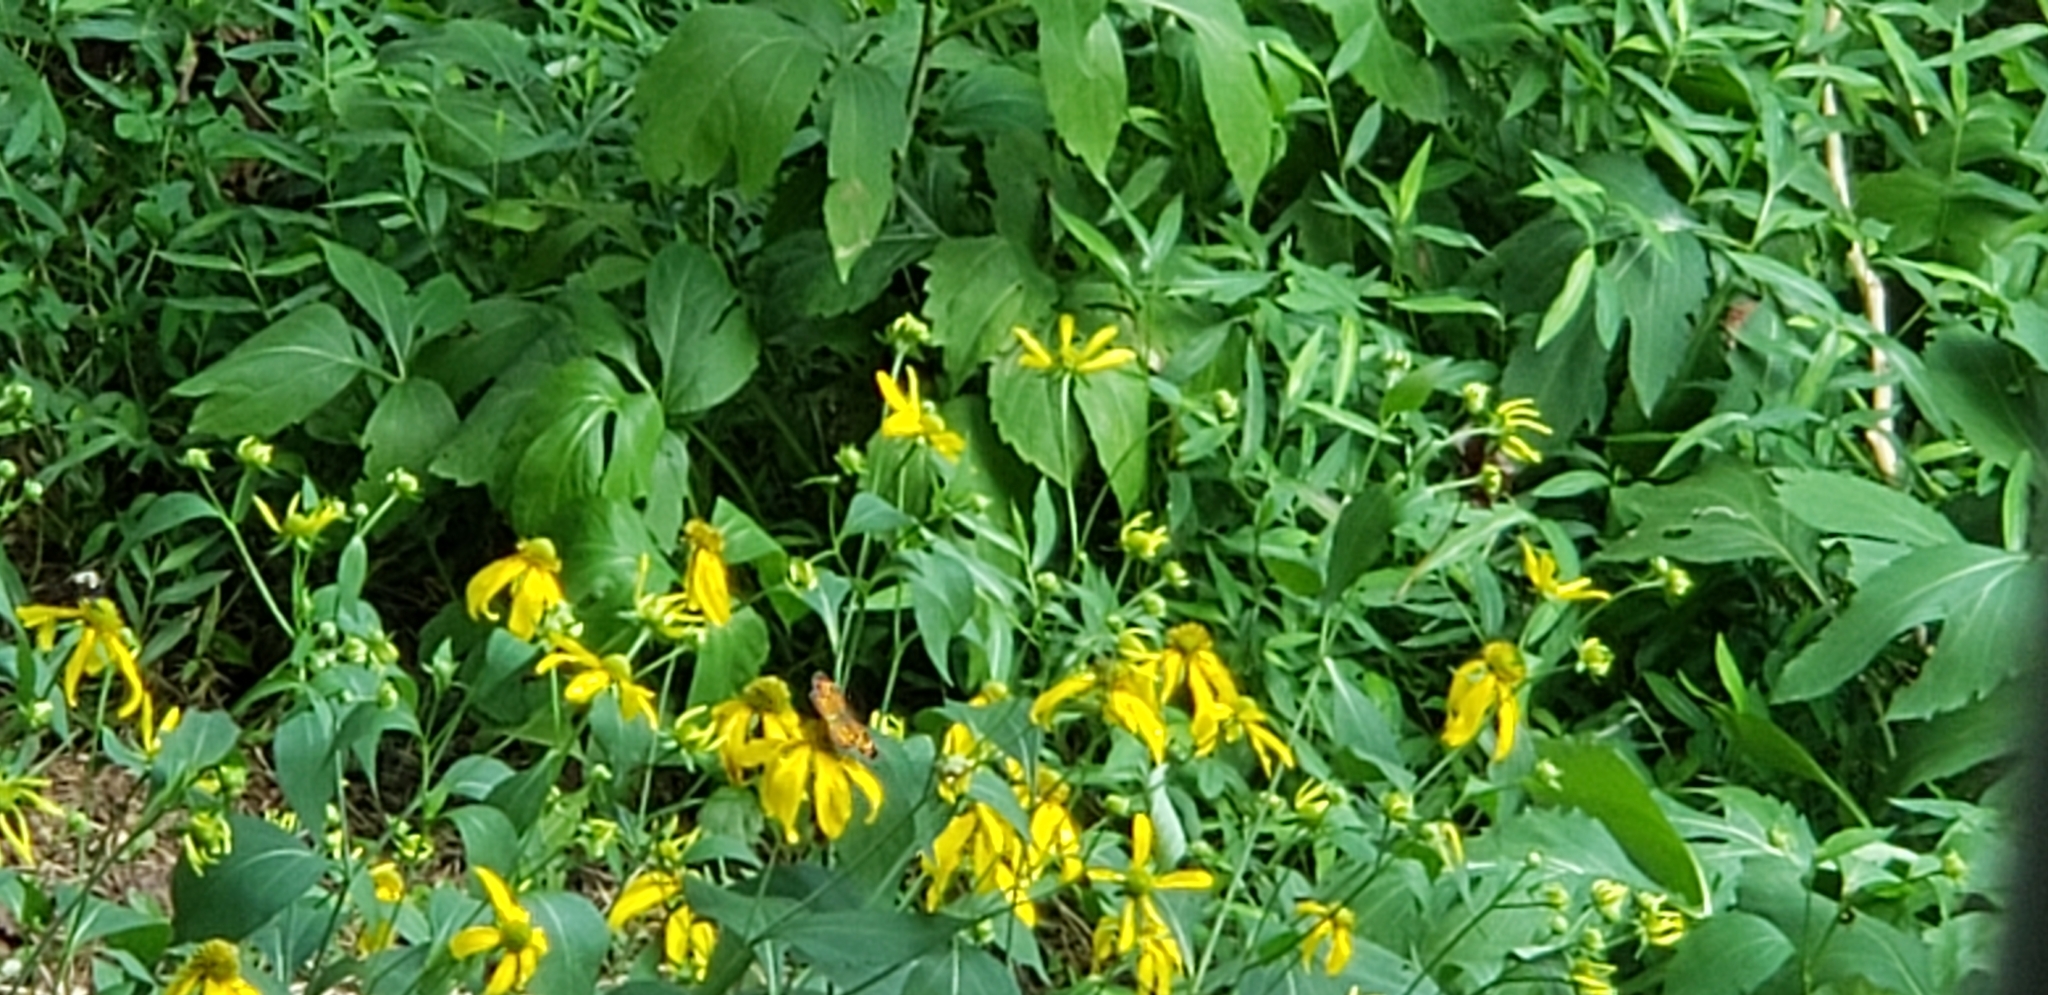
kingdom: Plantae
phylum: Tracheophyta
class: Magnoliopsida
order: Asterales
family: Asteraceae
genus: Rudbeckia
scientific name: Rudbeckia laciniata
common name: Coneflower
